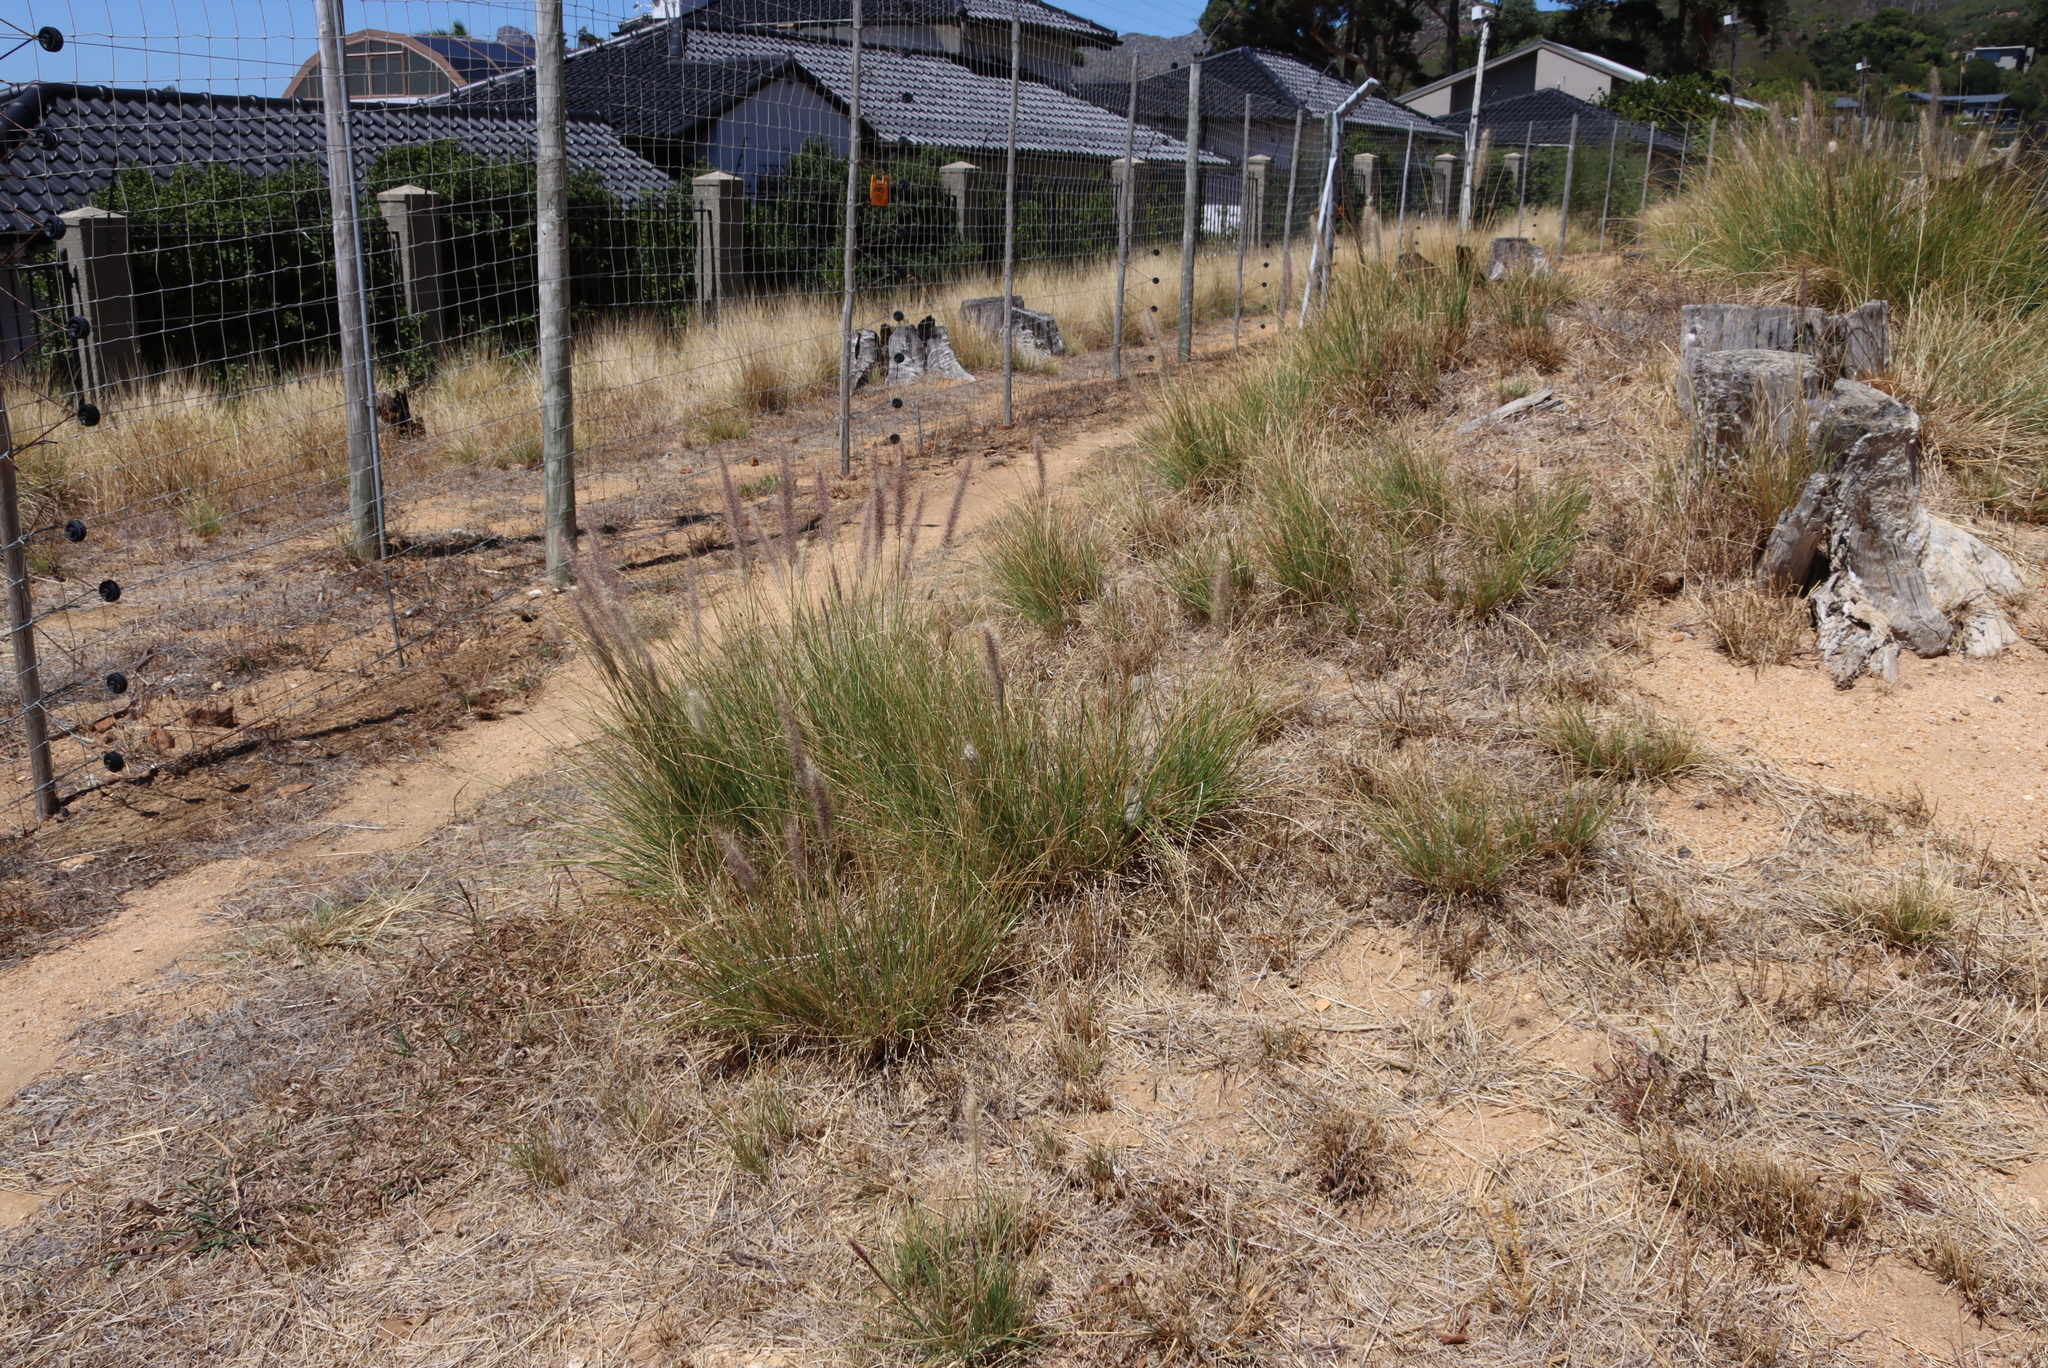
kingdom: Plantae
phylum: Tracheophyta
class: Liliopsida
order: Poales
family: Poaceae
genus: Cenchrus
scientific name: Cenchrus setaceus
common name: Crimson fountaingrass
